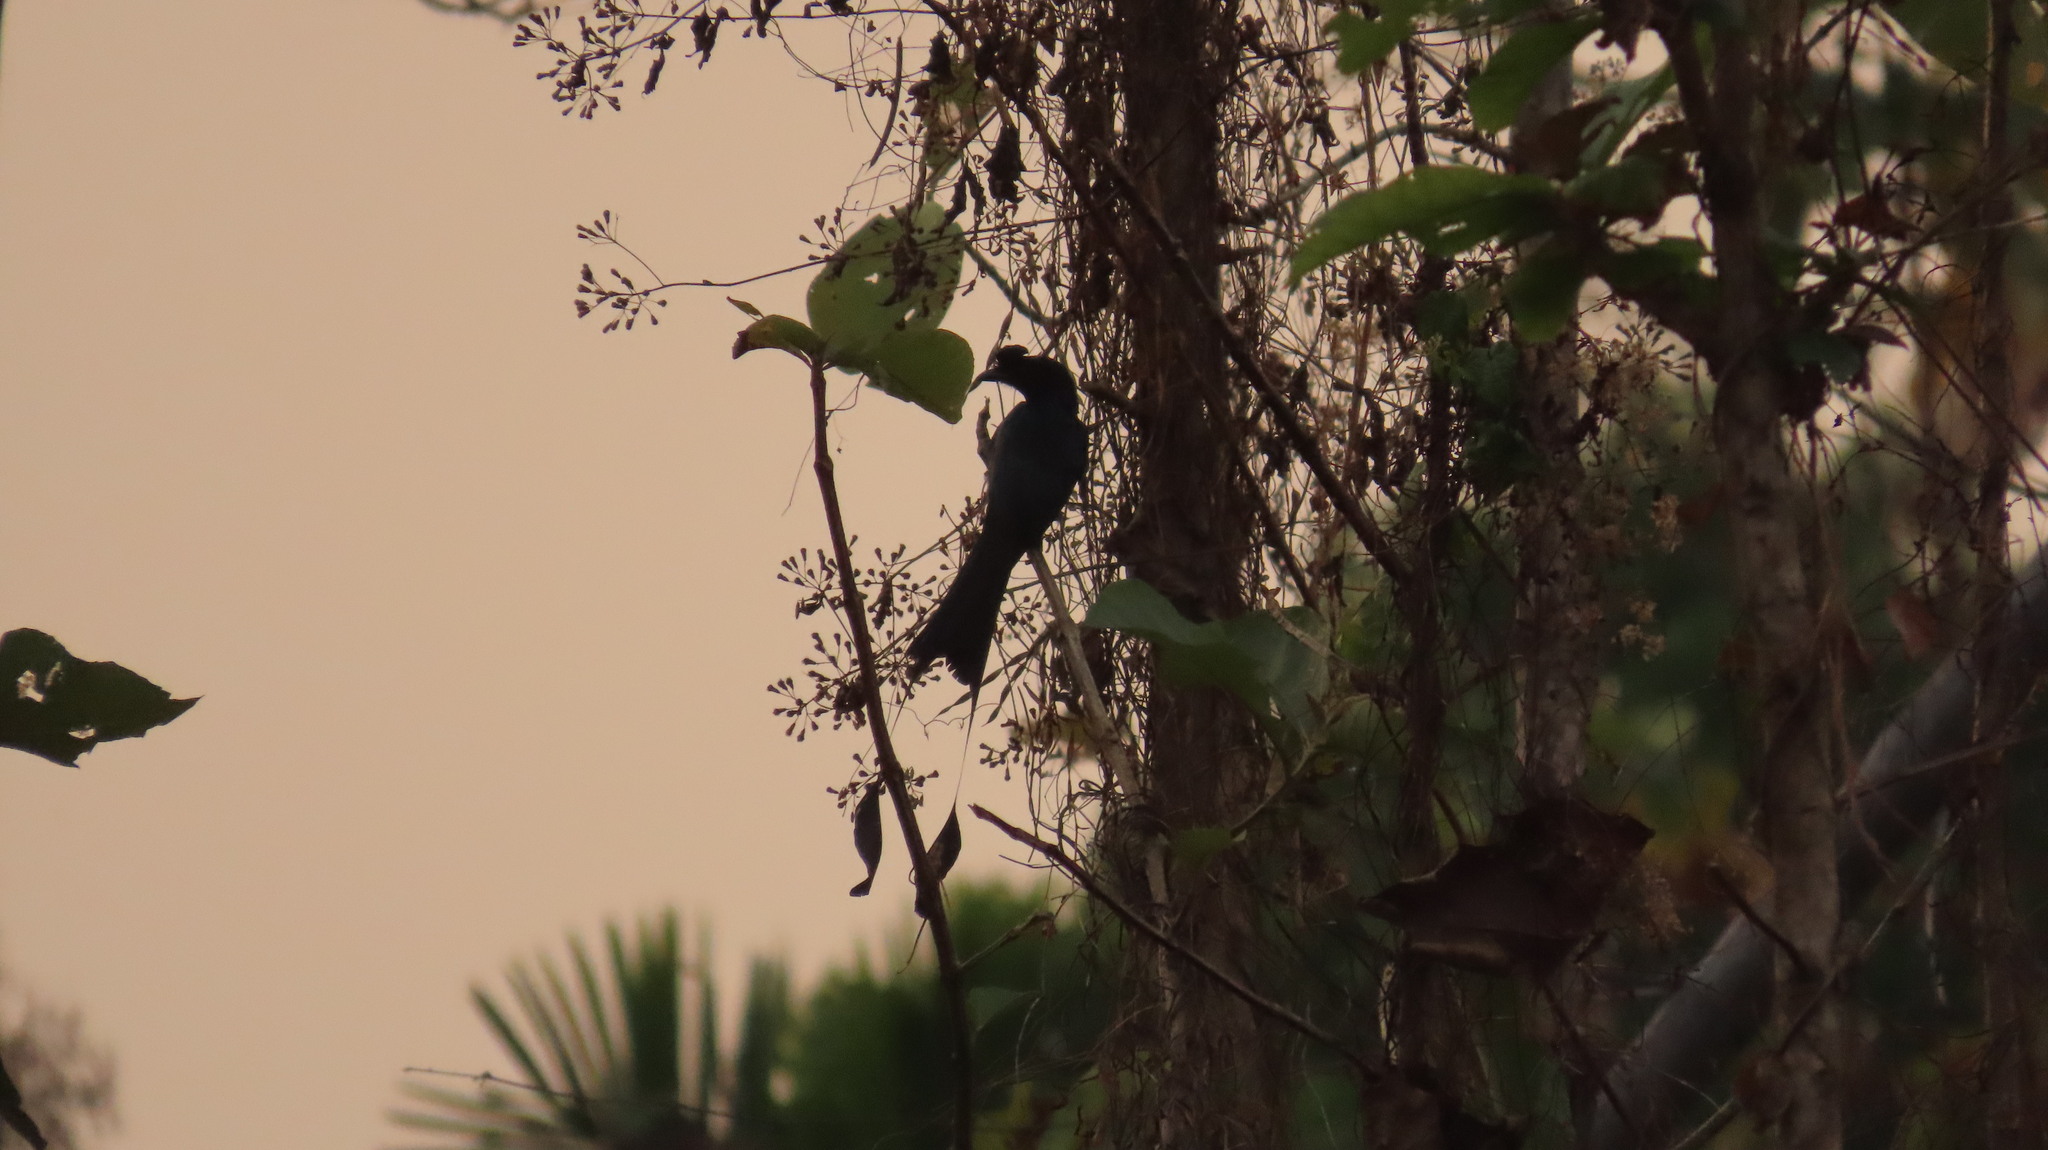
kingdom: Animalia
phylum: Chordata
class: Aves
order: Passeriformes
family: Dicruridae
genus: Dicrurus
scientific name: Dicrurus paradiseus
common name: Greater racket-tailed drongo
